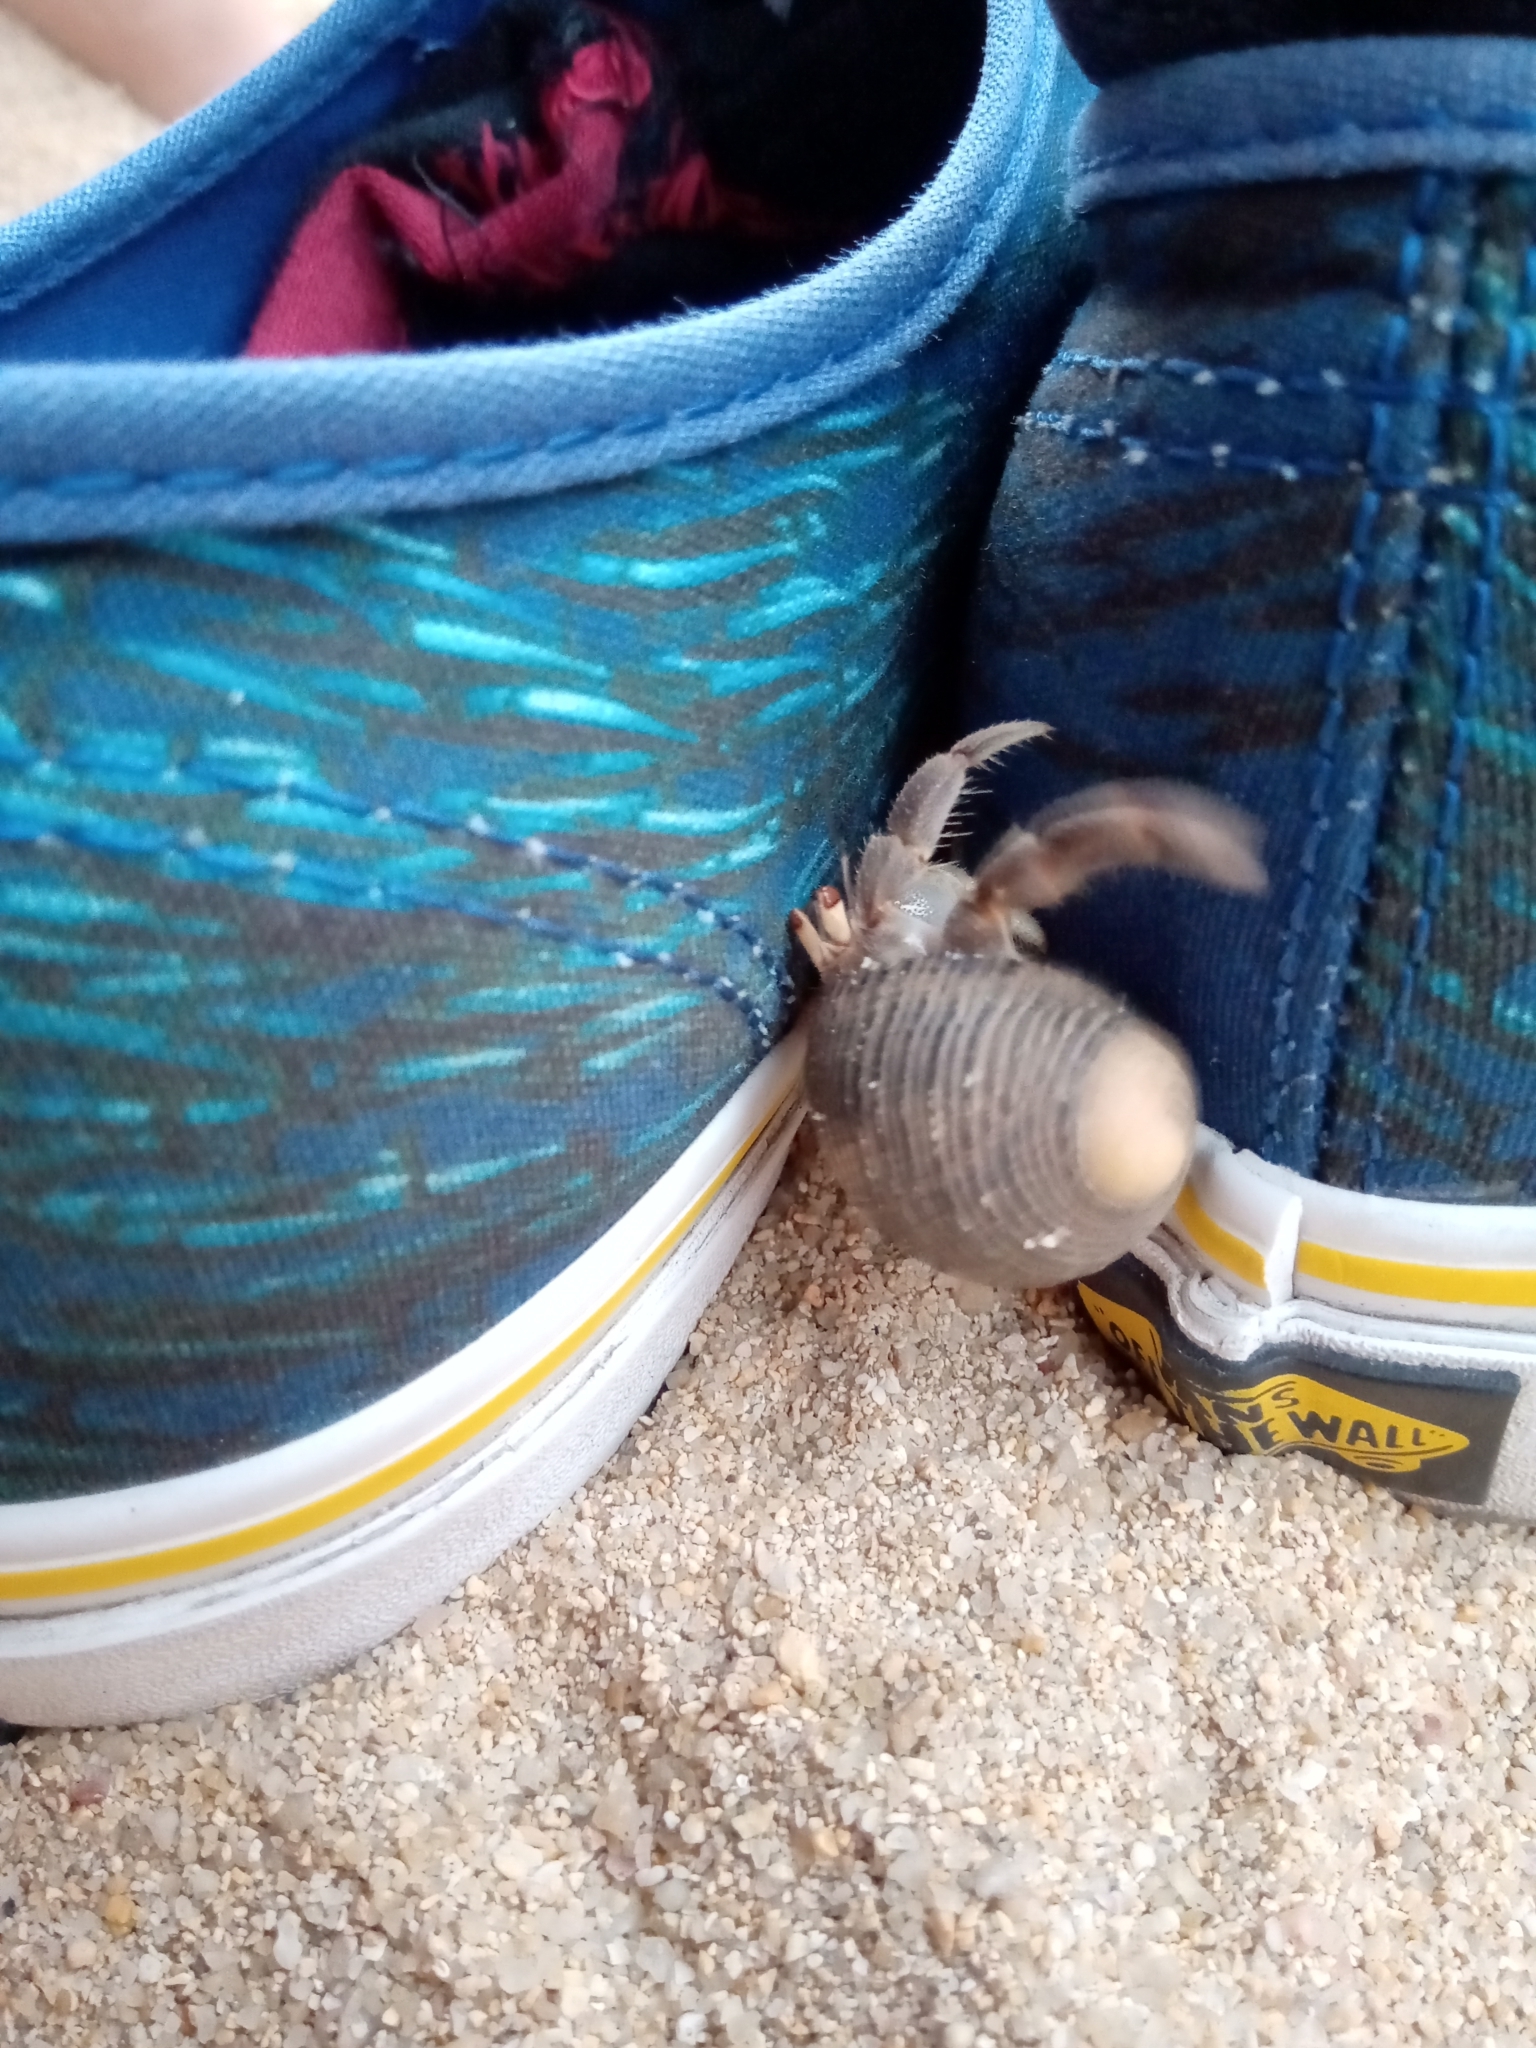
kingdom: Animalia
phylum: Arthropoda
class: Malacostraca
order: Decapoda
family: Coenobitidae
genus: Coenobita
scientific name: Coenobita compressus
